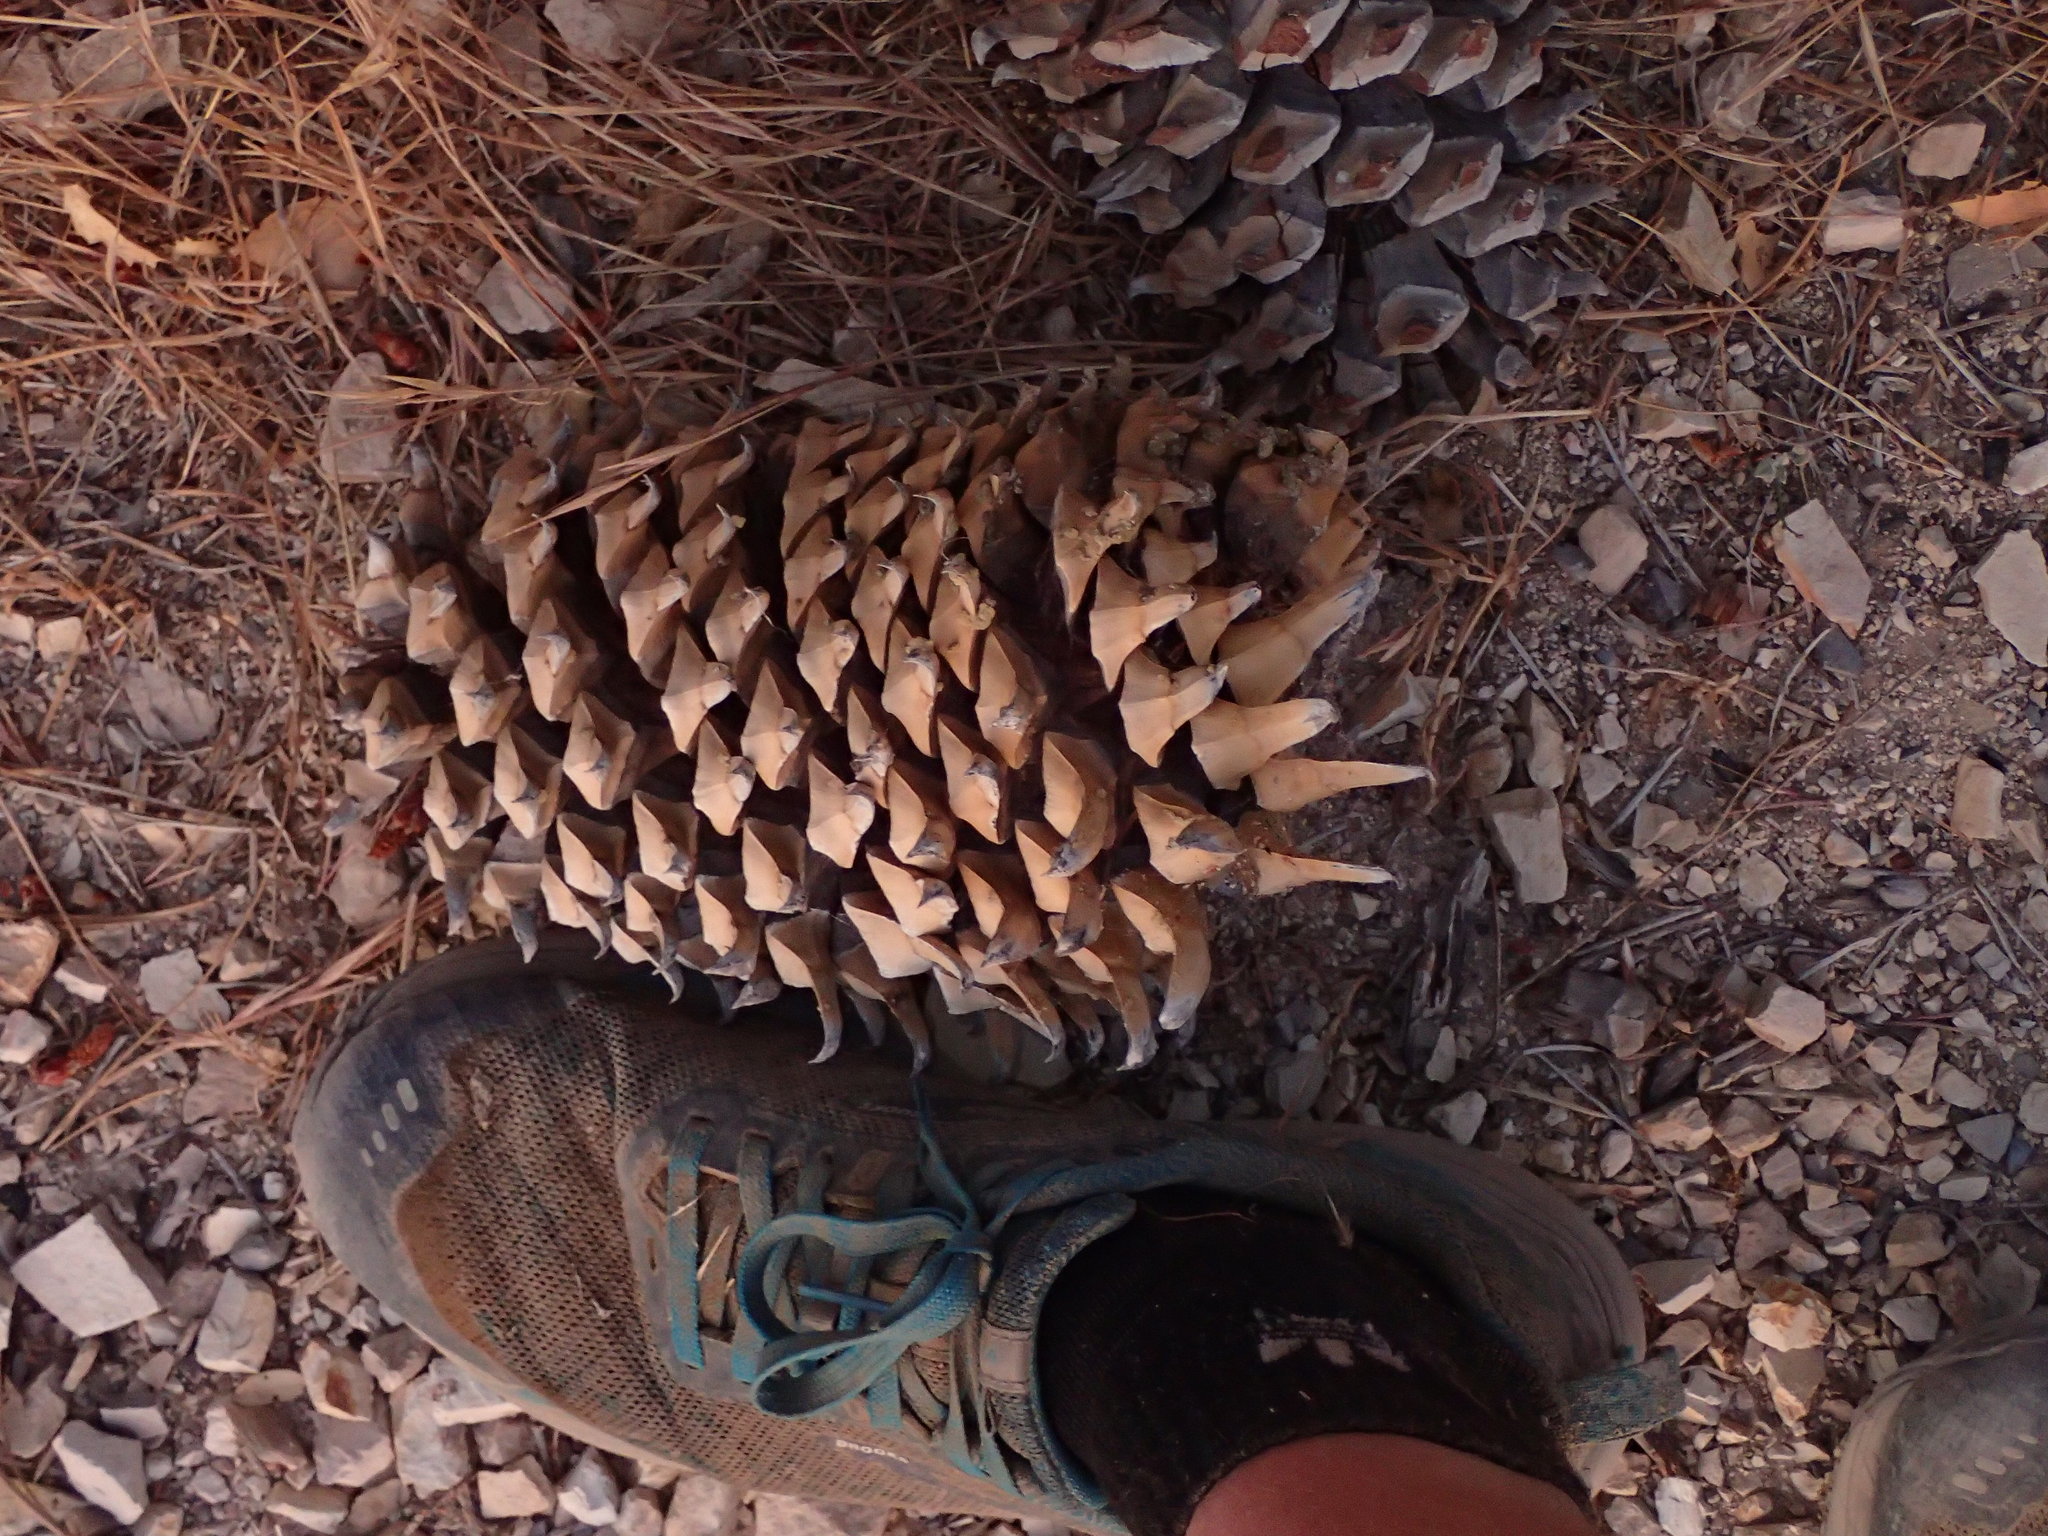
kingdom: Plantae
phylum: Tracheophyta
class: Pinopsida
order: Pinales
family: Pinaceae
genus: Pinus
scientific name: Pinus coulteri
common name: Coulter pine
